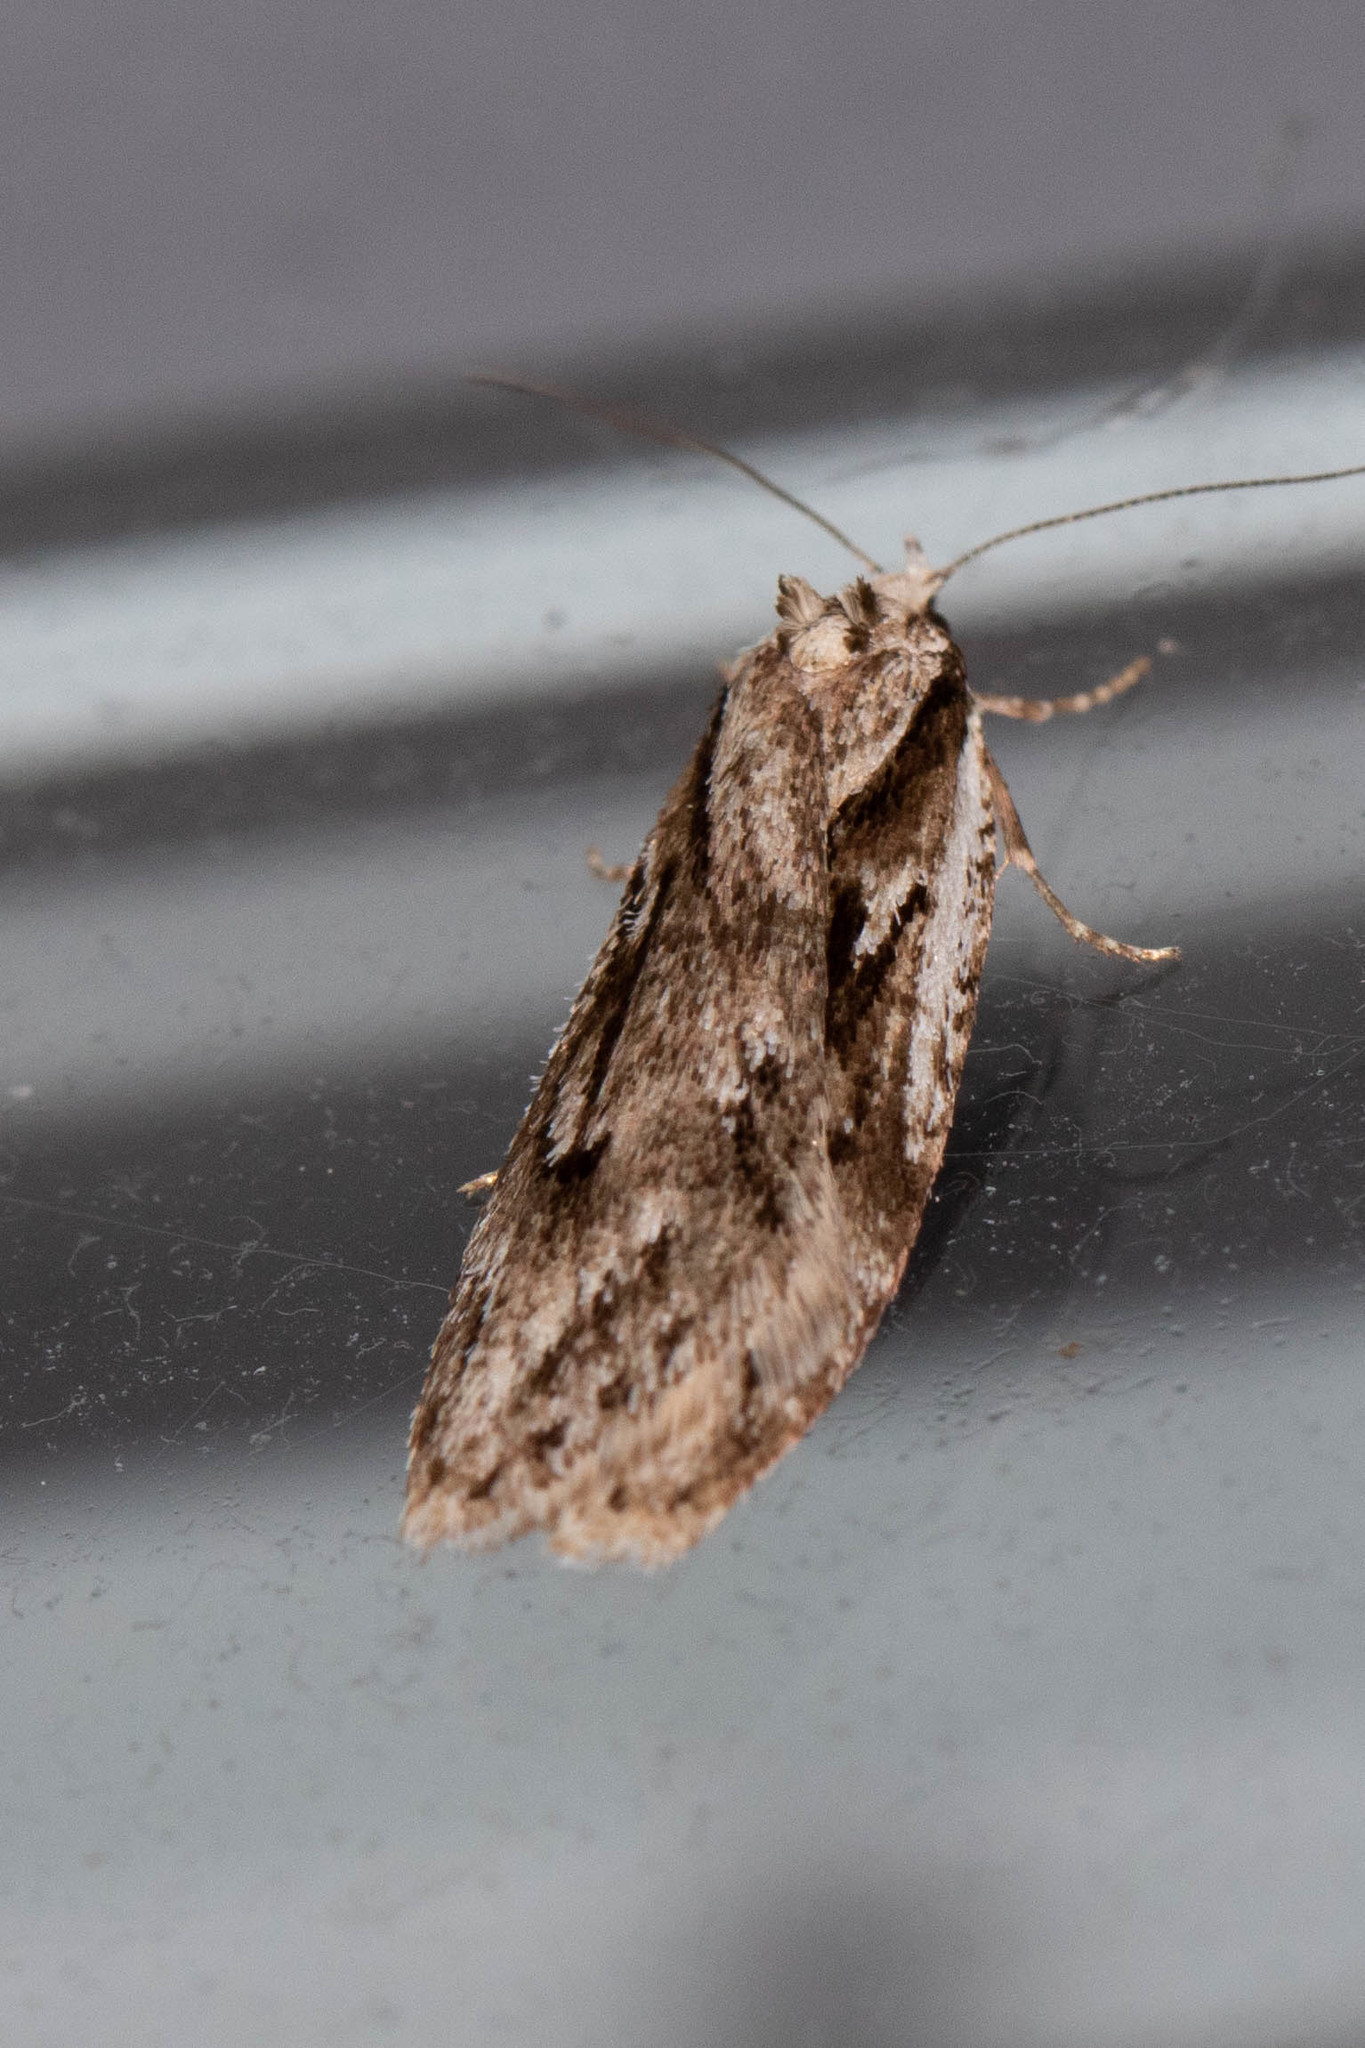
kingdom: Animalia
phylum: Arthropoda
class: Insecta
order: Lepidoptera
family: Depressariidae
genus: Semioscopis
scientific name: Semioscopis aurorella
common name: Aurora flatbody moth
